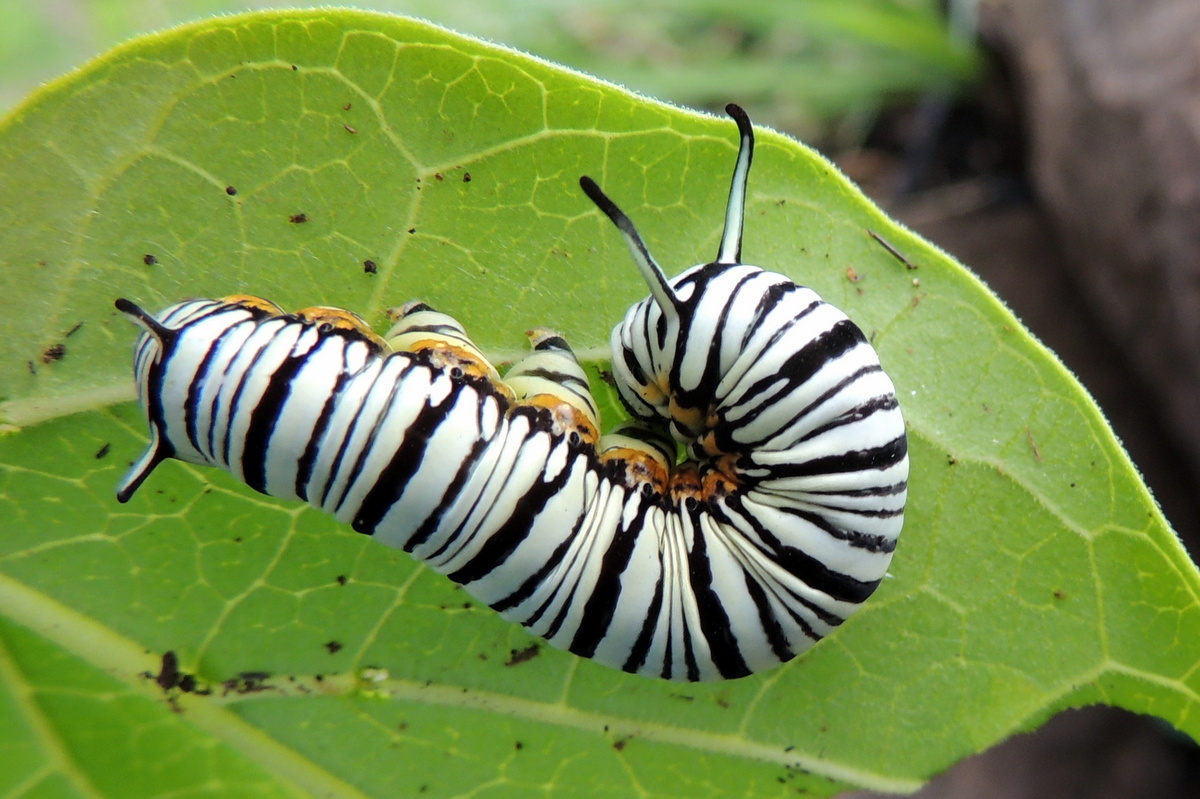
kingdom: Animalia
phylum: Arthropoda
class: Insecta
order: Lepidoptera
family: Nymphalidae
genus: Tirumala
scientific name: Tirumala limniace
